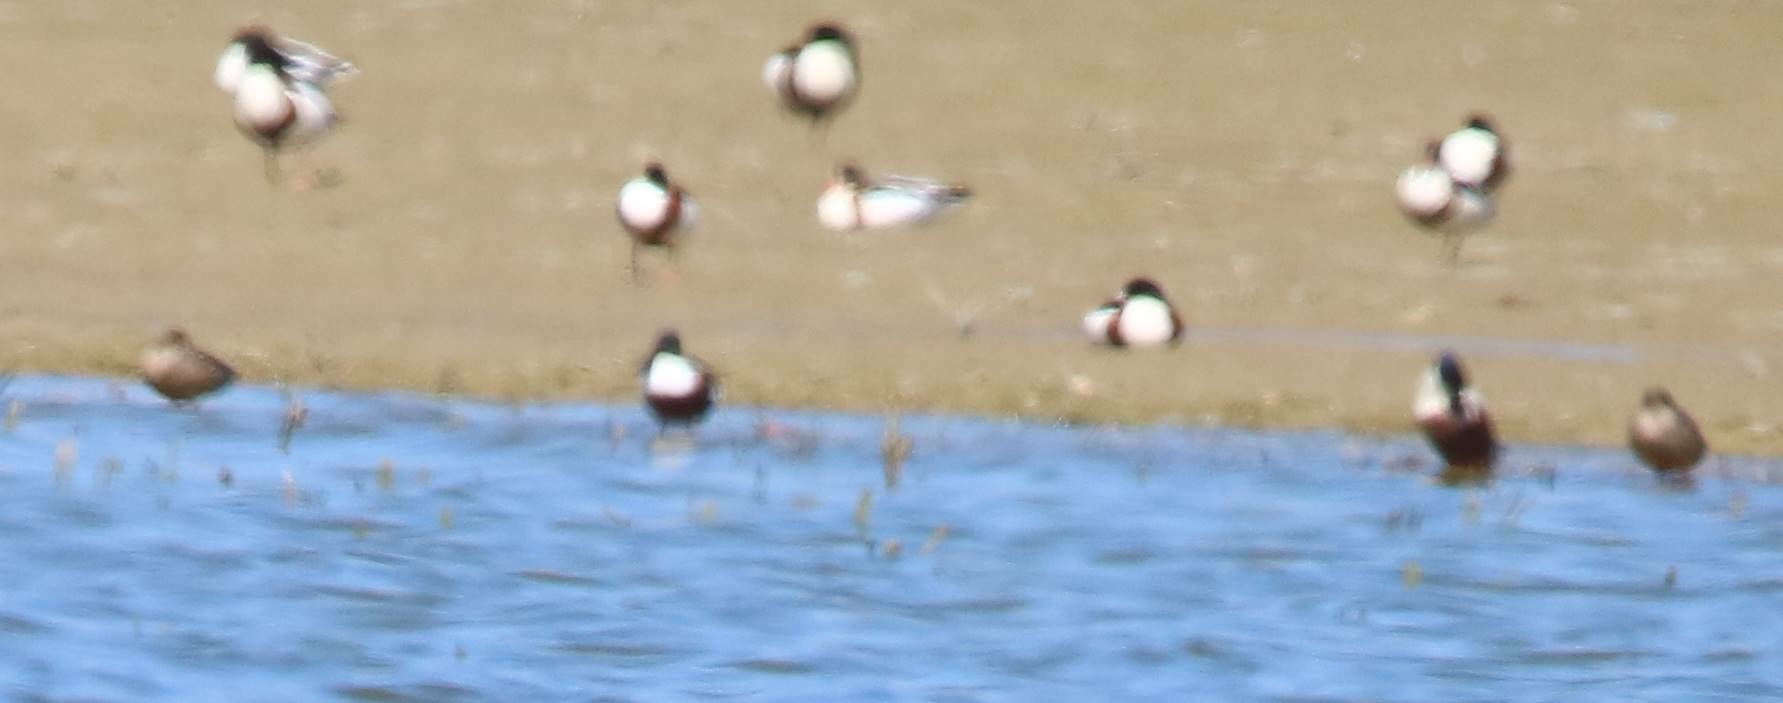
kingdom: Animalia
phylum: Chordata
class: Aves
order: Anseriformes
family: Anatidae
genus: Spatula
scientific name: Spatula clypeata
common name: Northern shoveler
